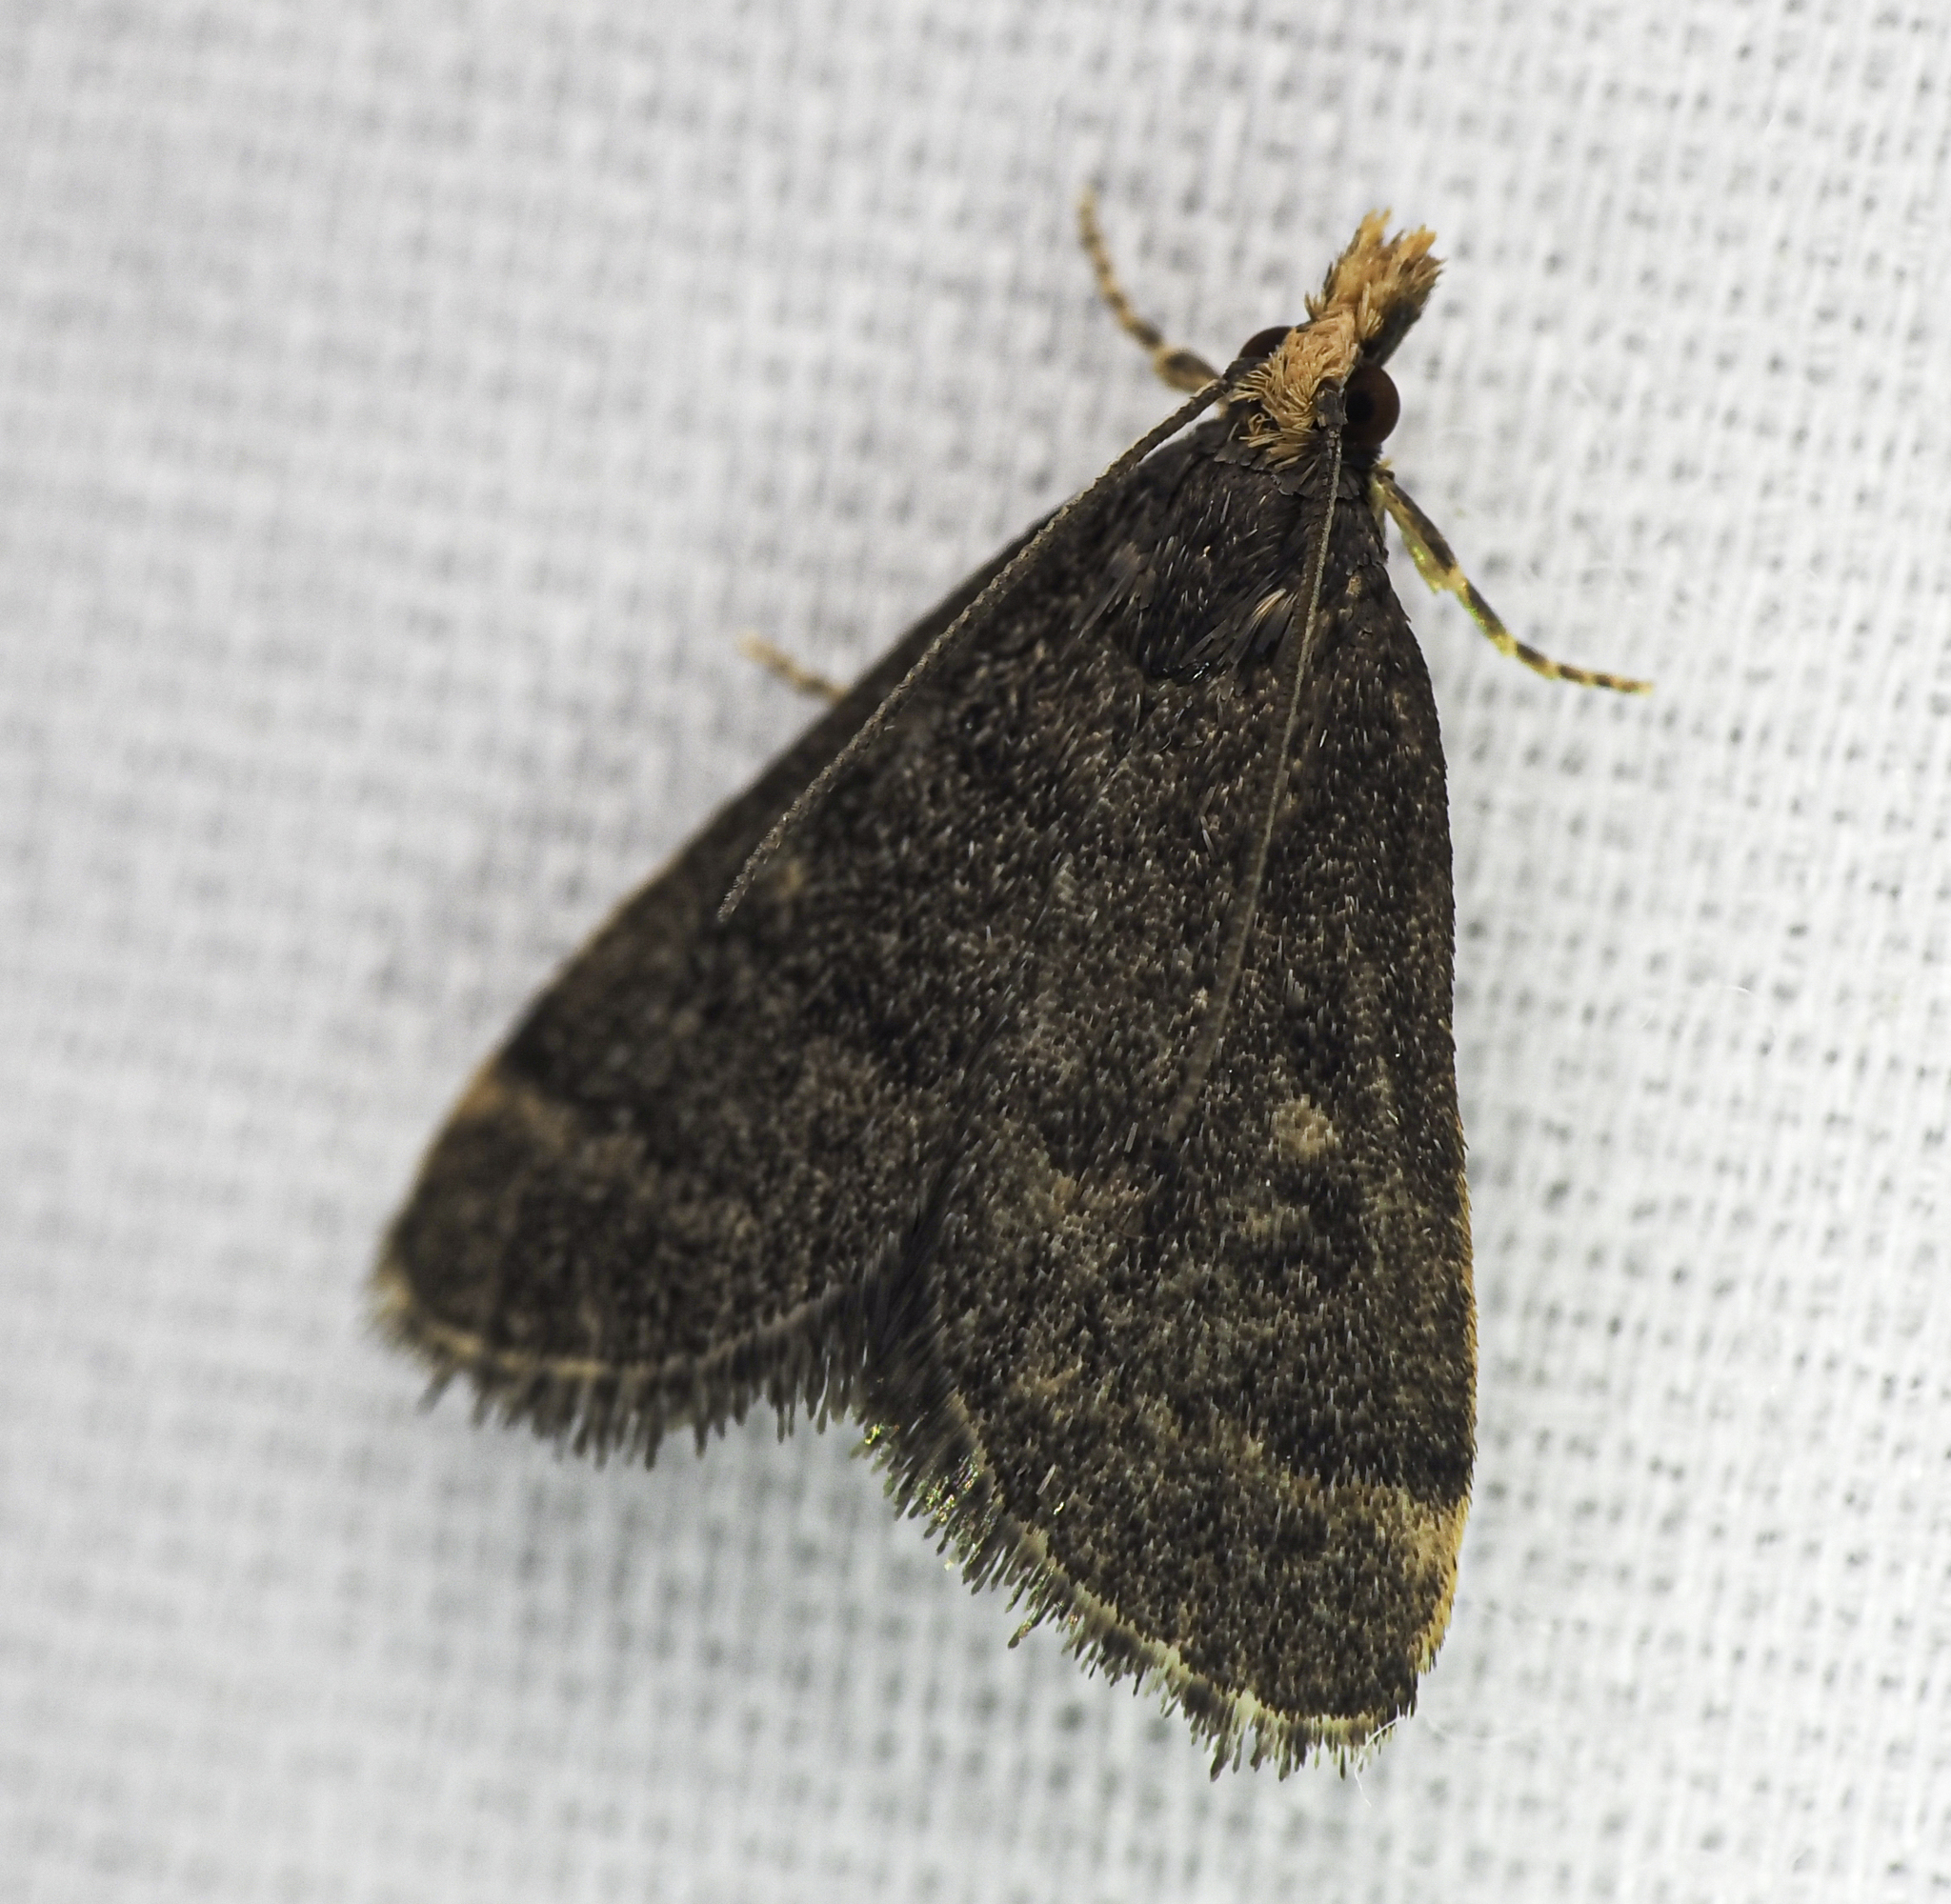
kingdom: Animalia
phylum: Arthropoda
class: Insecta
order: Lepidoptera
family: Crambidae
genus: Pyrausta
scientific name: Pyrausta merrickalis
